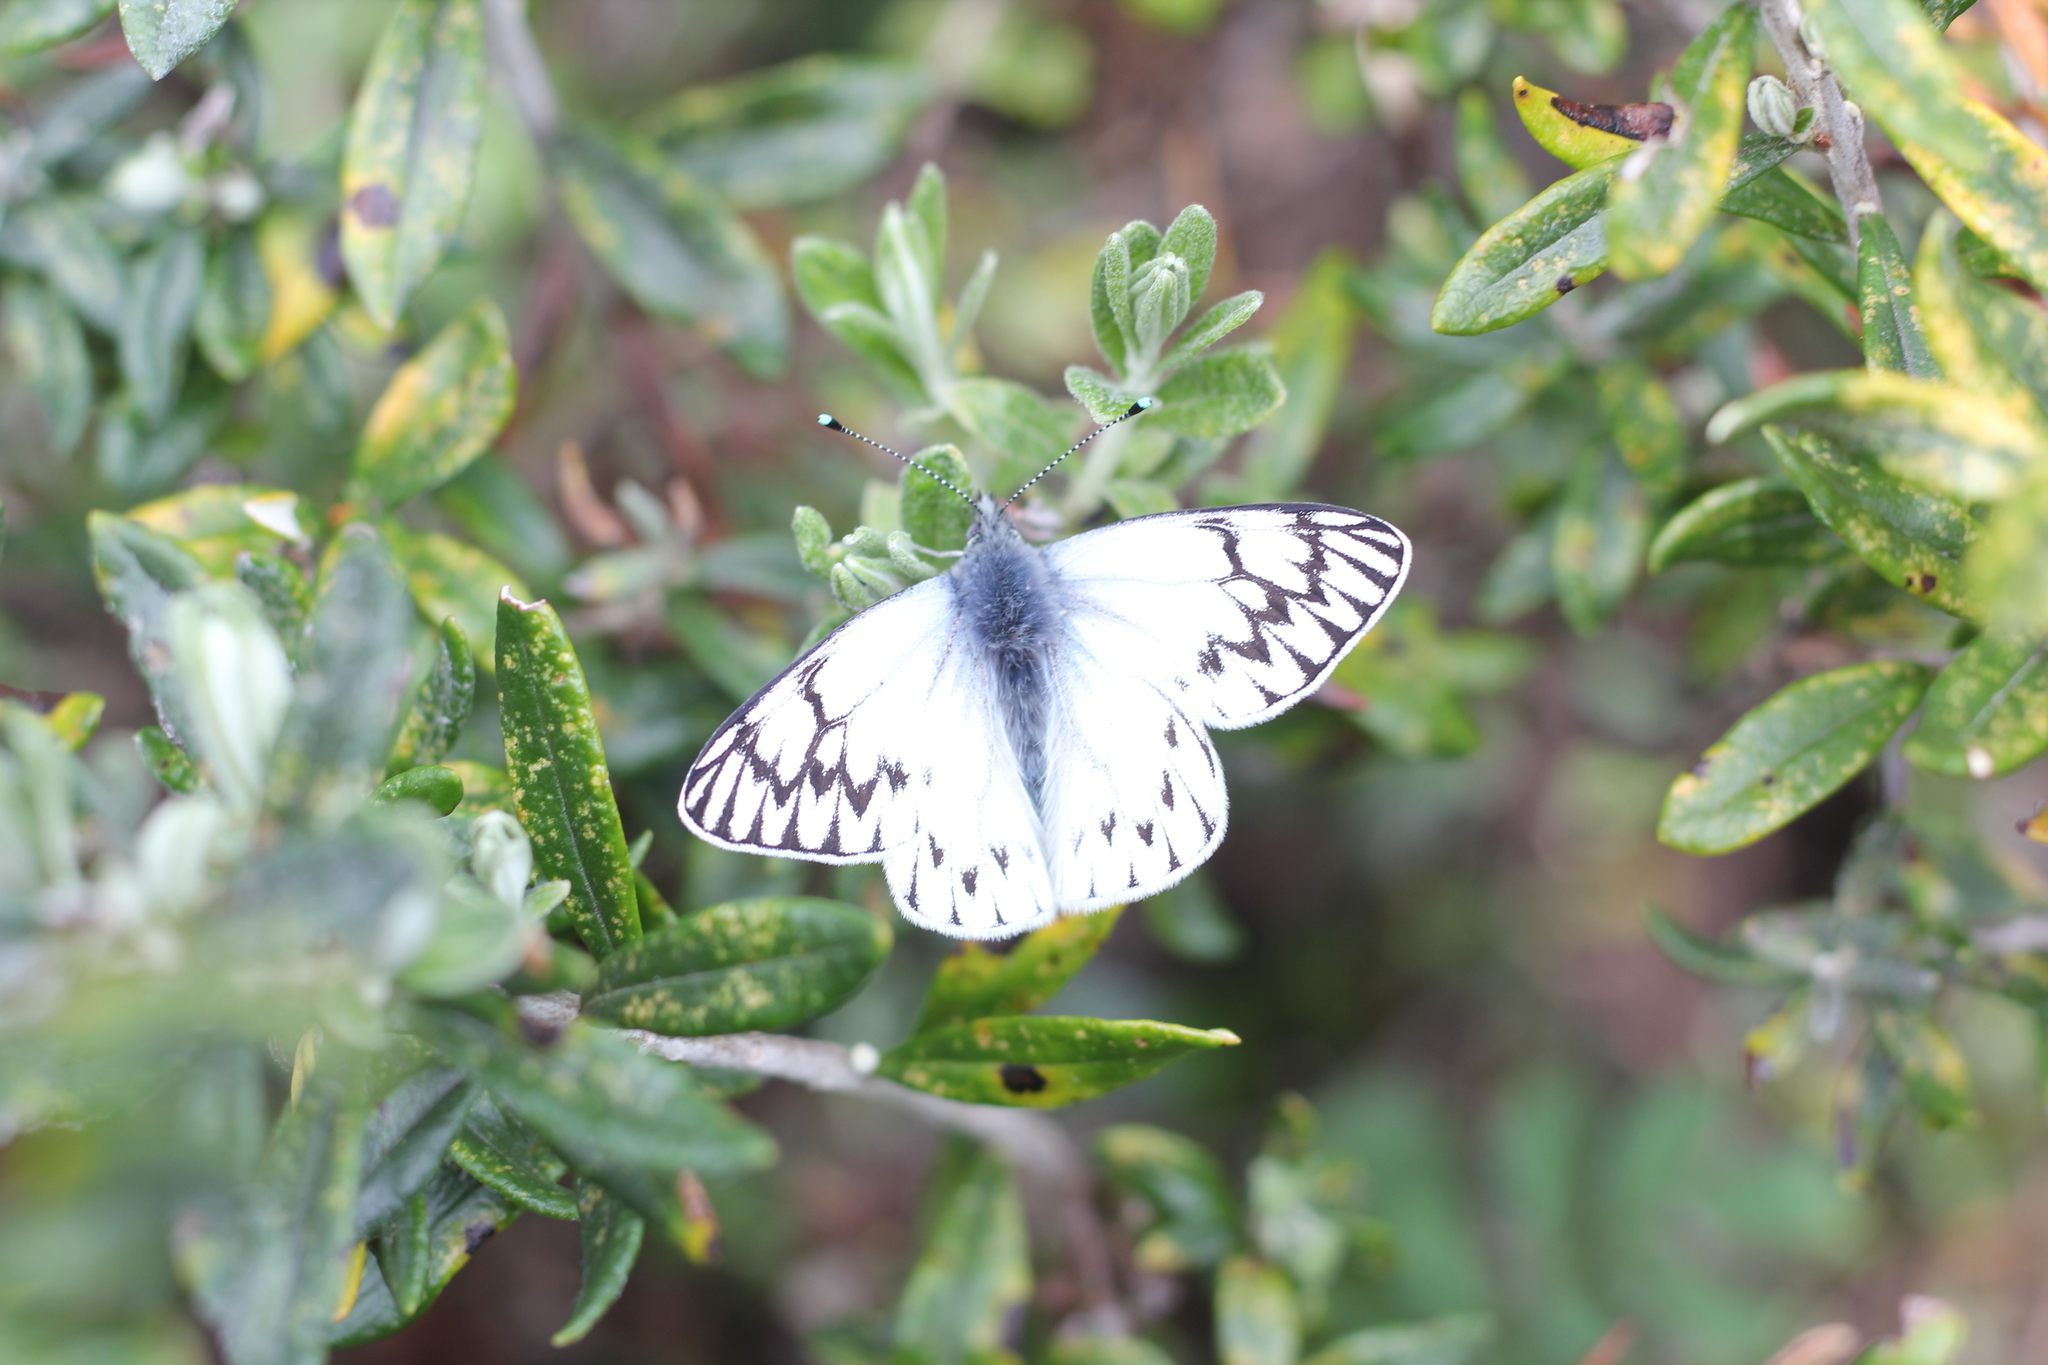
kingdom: Animalia
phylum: Arthropoda
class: Insecta
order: Lepidoptera
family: Pieridae
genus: Tatochila
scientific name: Tatochila theodice
